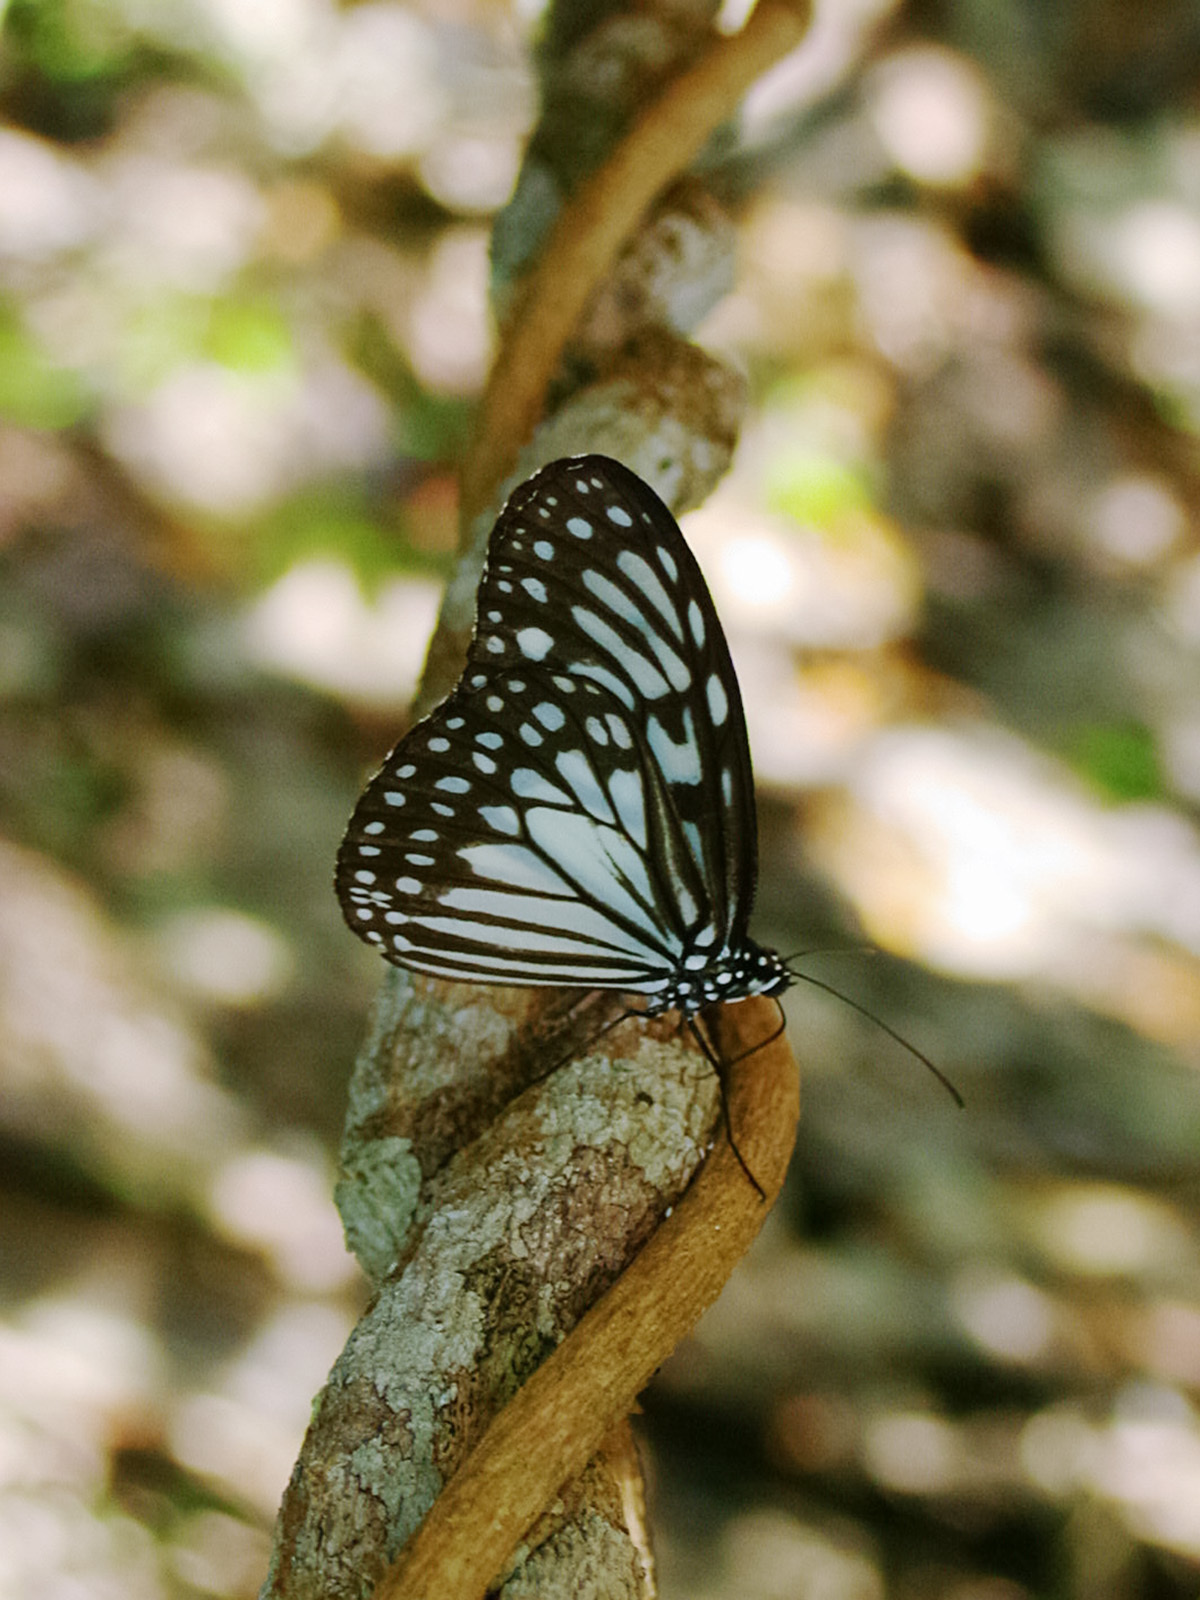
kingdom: Animalia
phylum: Arthropoda
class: Insecta
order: Lepidoptera
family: Nymphalidae
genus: Ideopsis
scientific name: Ideopsis juventa
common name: Grey glassy tiger
